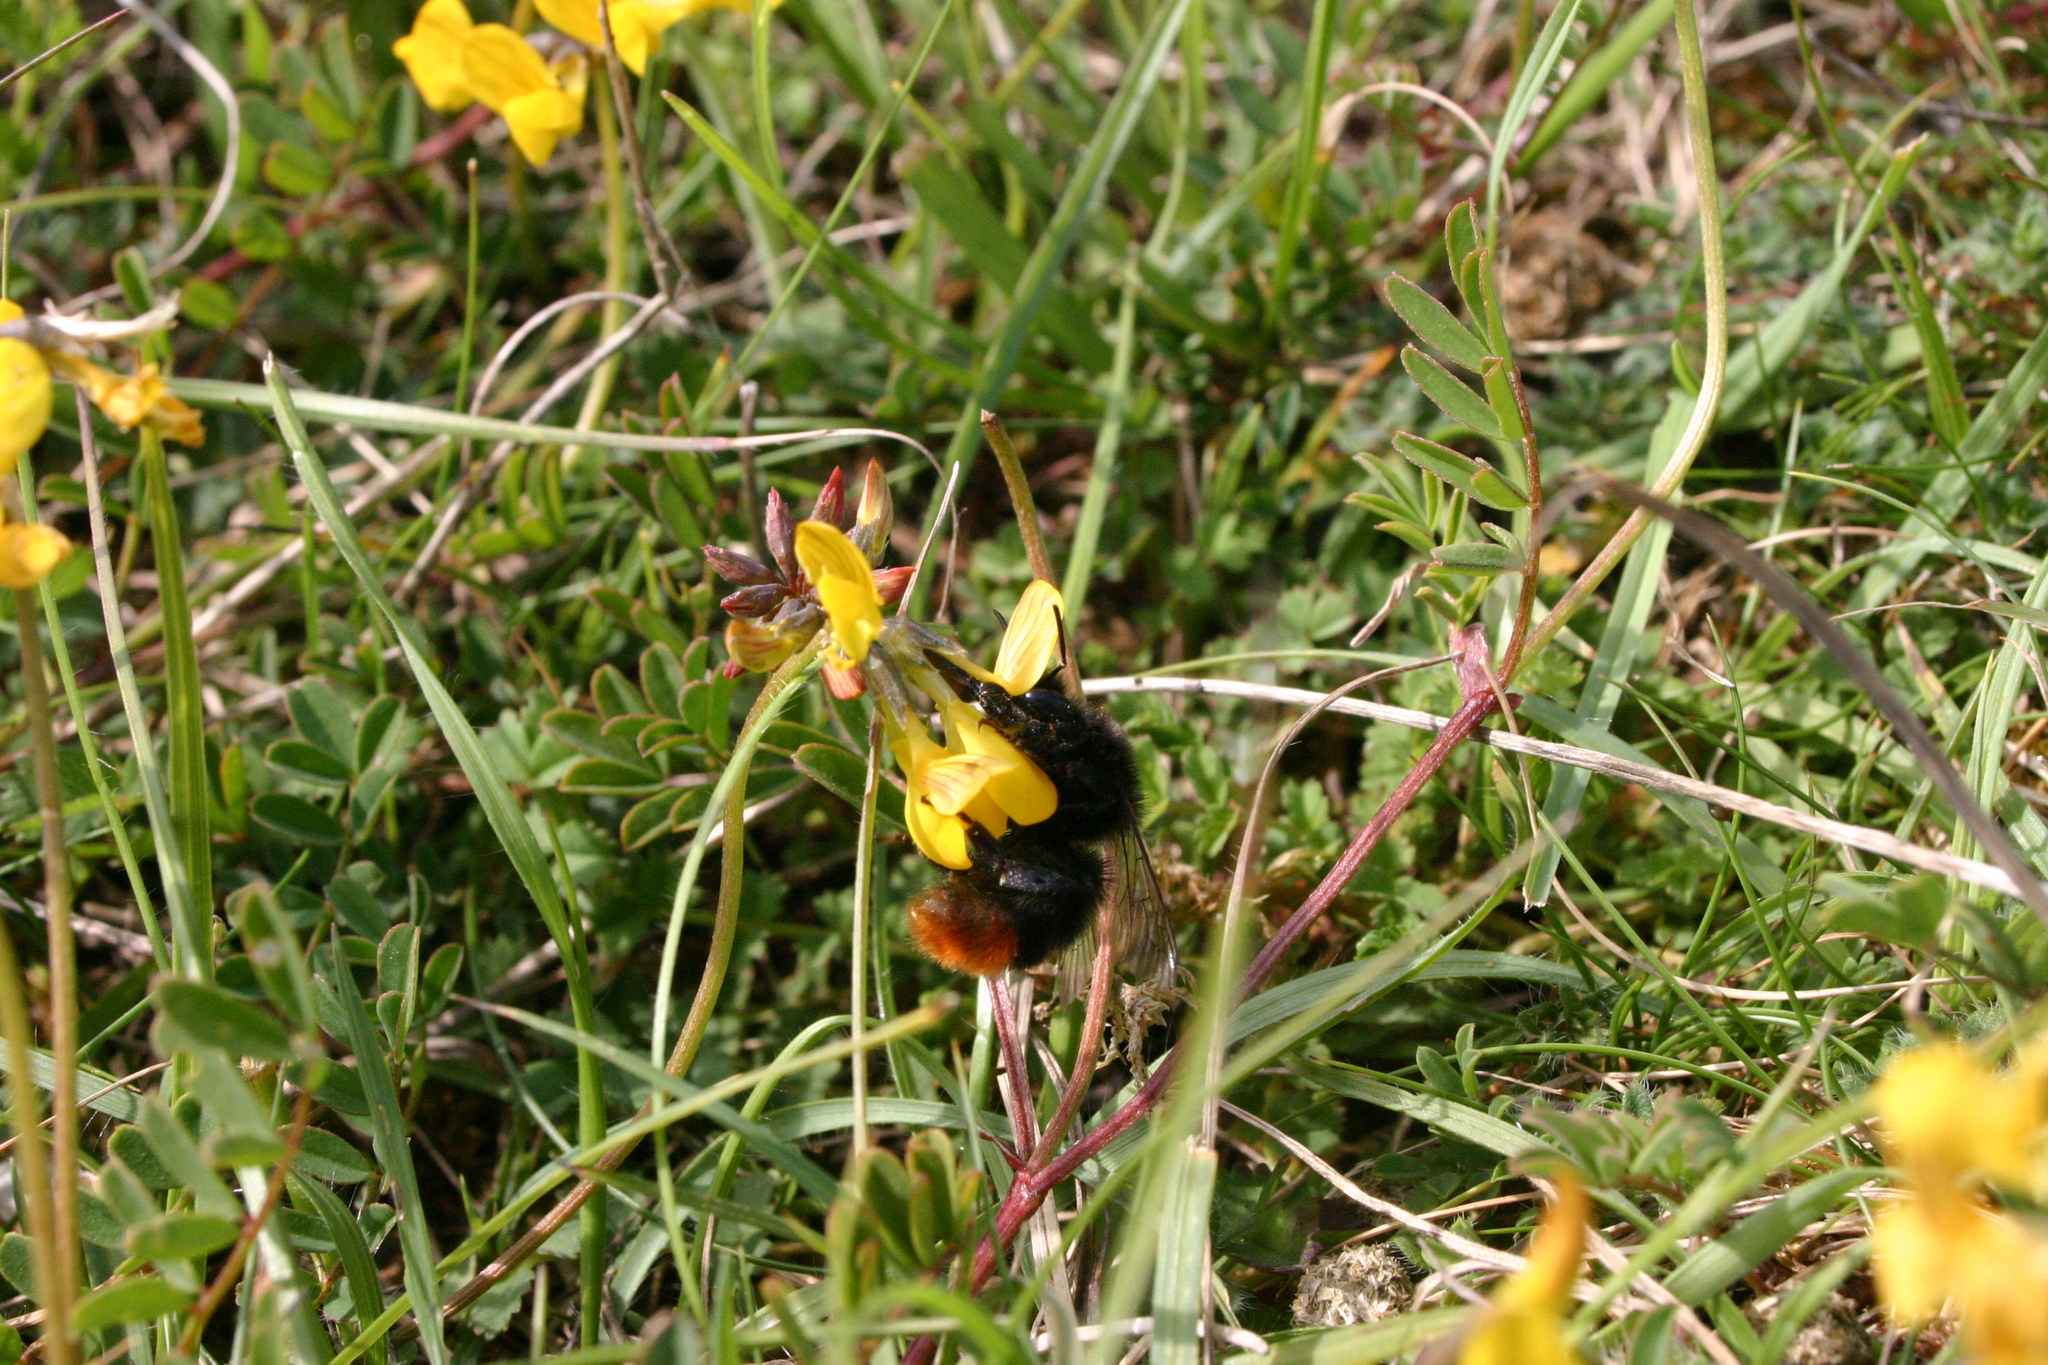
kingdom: Animalia
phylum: Arthropoda
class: Insecta
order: Hymenoptera
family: Apidae
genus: Bombus
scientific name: Bombus lapidarius
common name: Large red-tailed humble-bee
